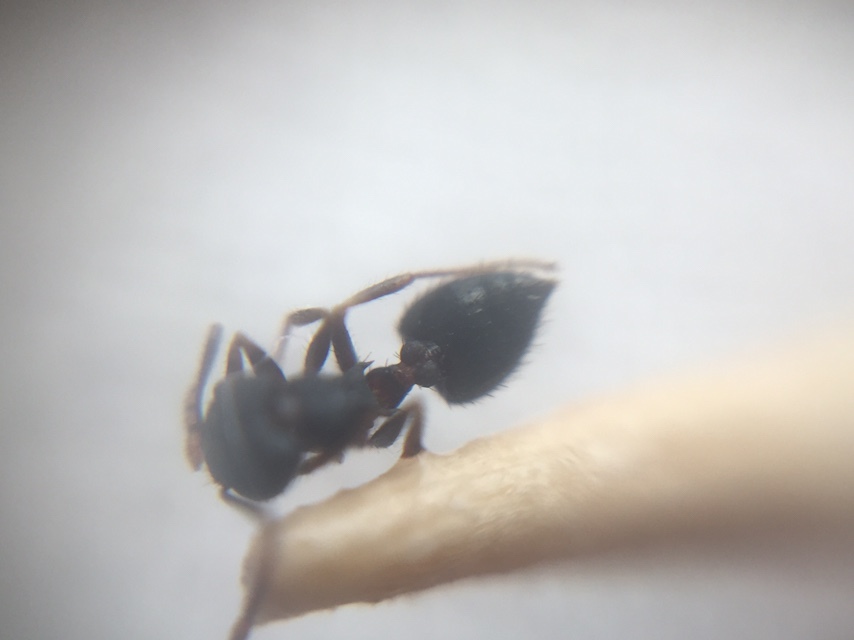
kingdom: Animalia
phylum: Arthropoda
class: Insecta
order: Hymenoptera
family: Formicidae
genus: Crematogaster
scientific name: Crematogaster rothneyi
